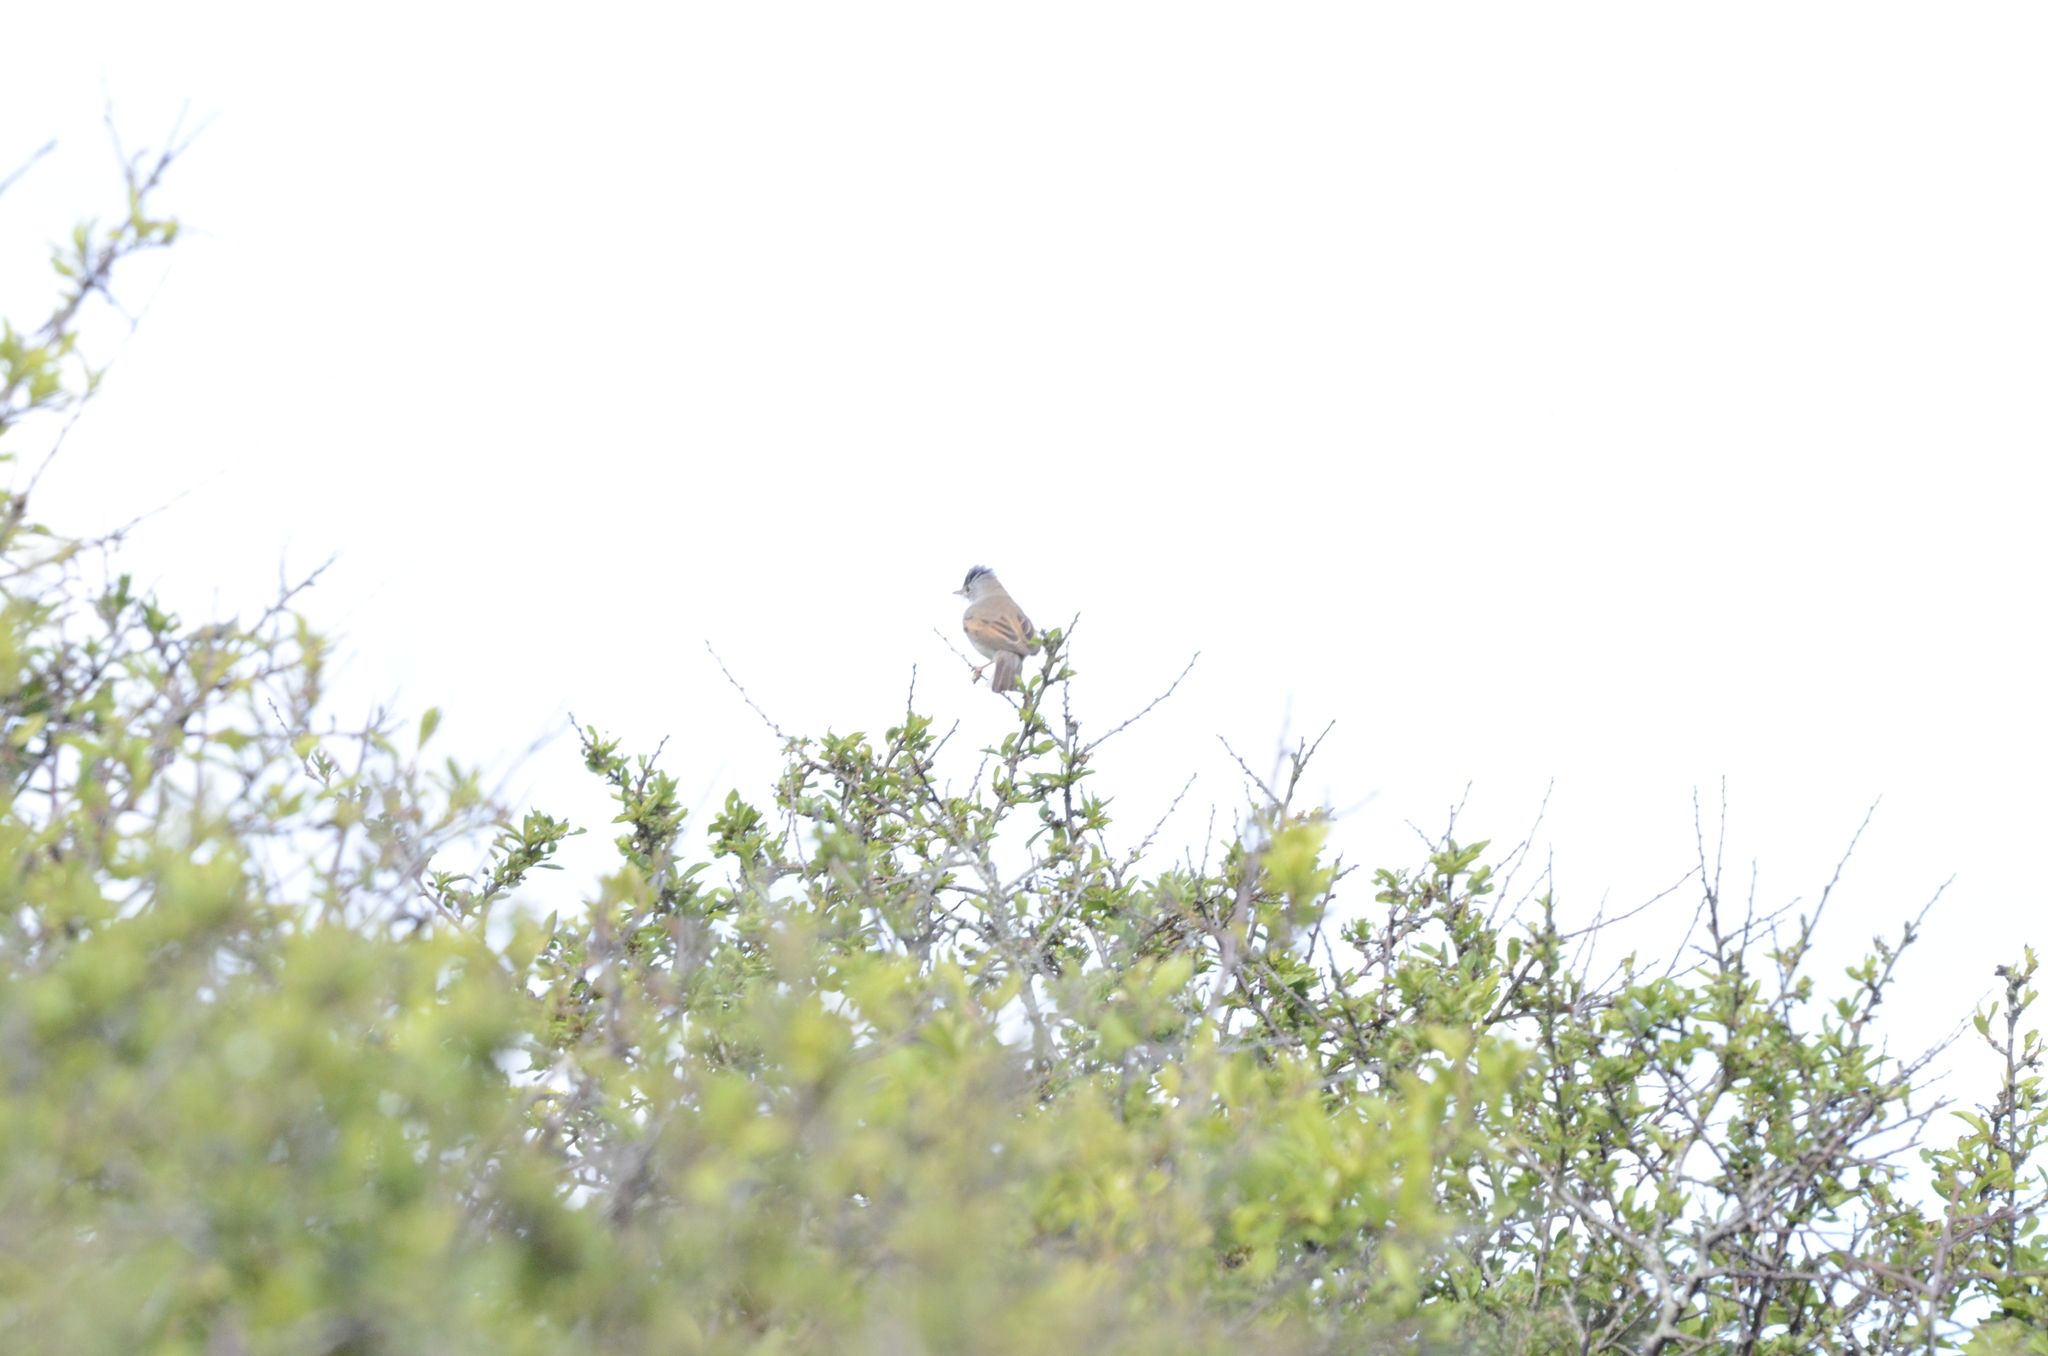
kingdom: Animalia
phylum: Chordata
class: Aves
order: Passeriformes
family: Sylviidae
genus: Sylvia
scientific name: Sylvia communis
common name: Common whitethroat
